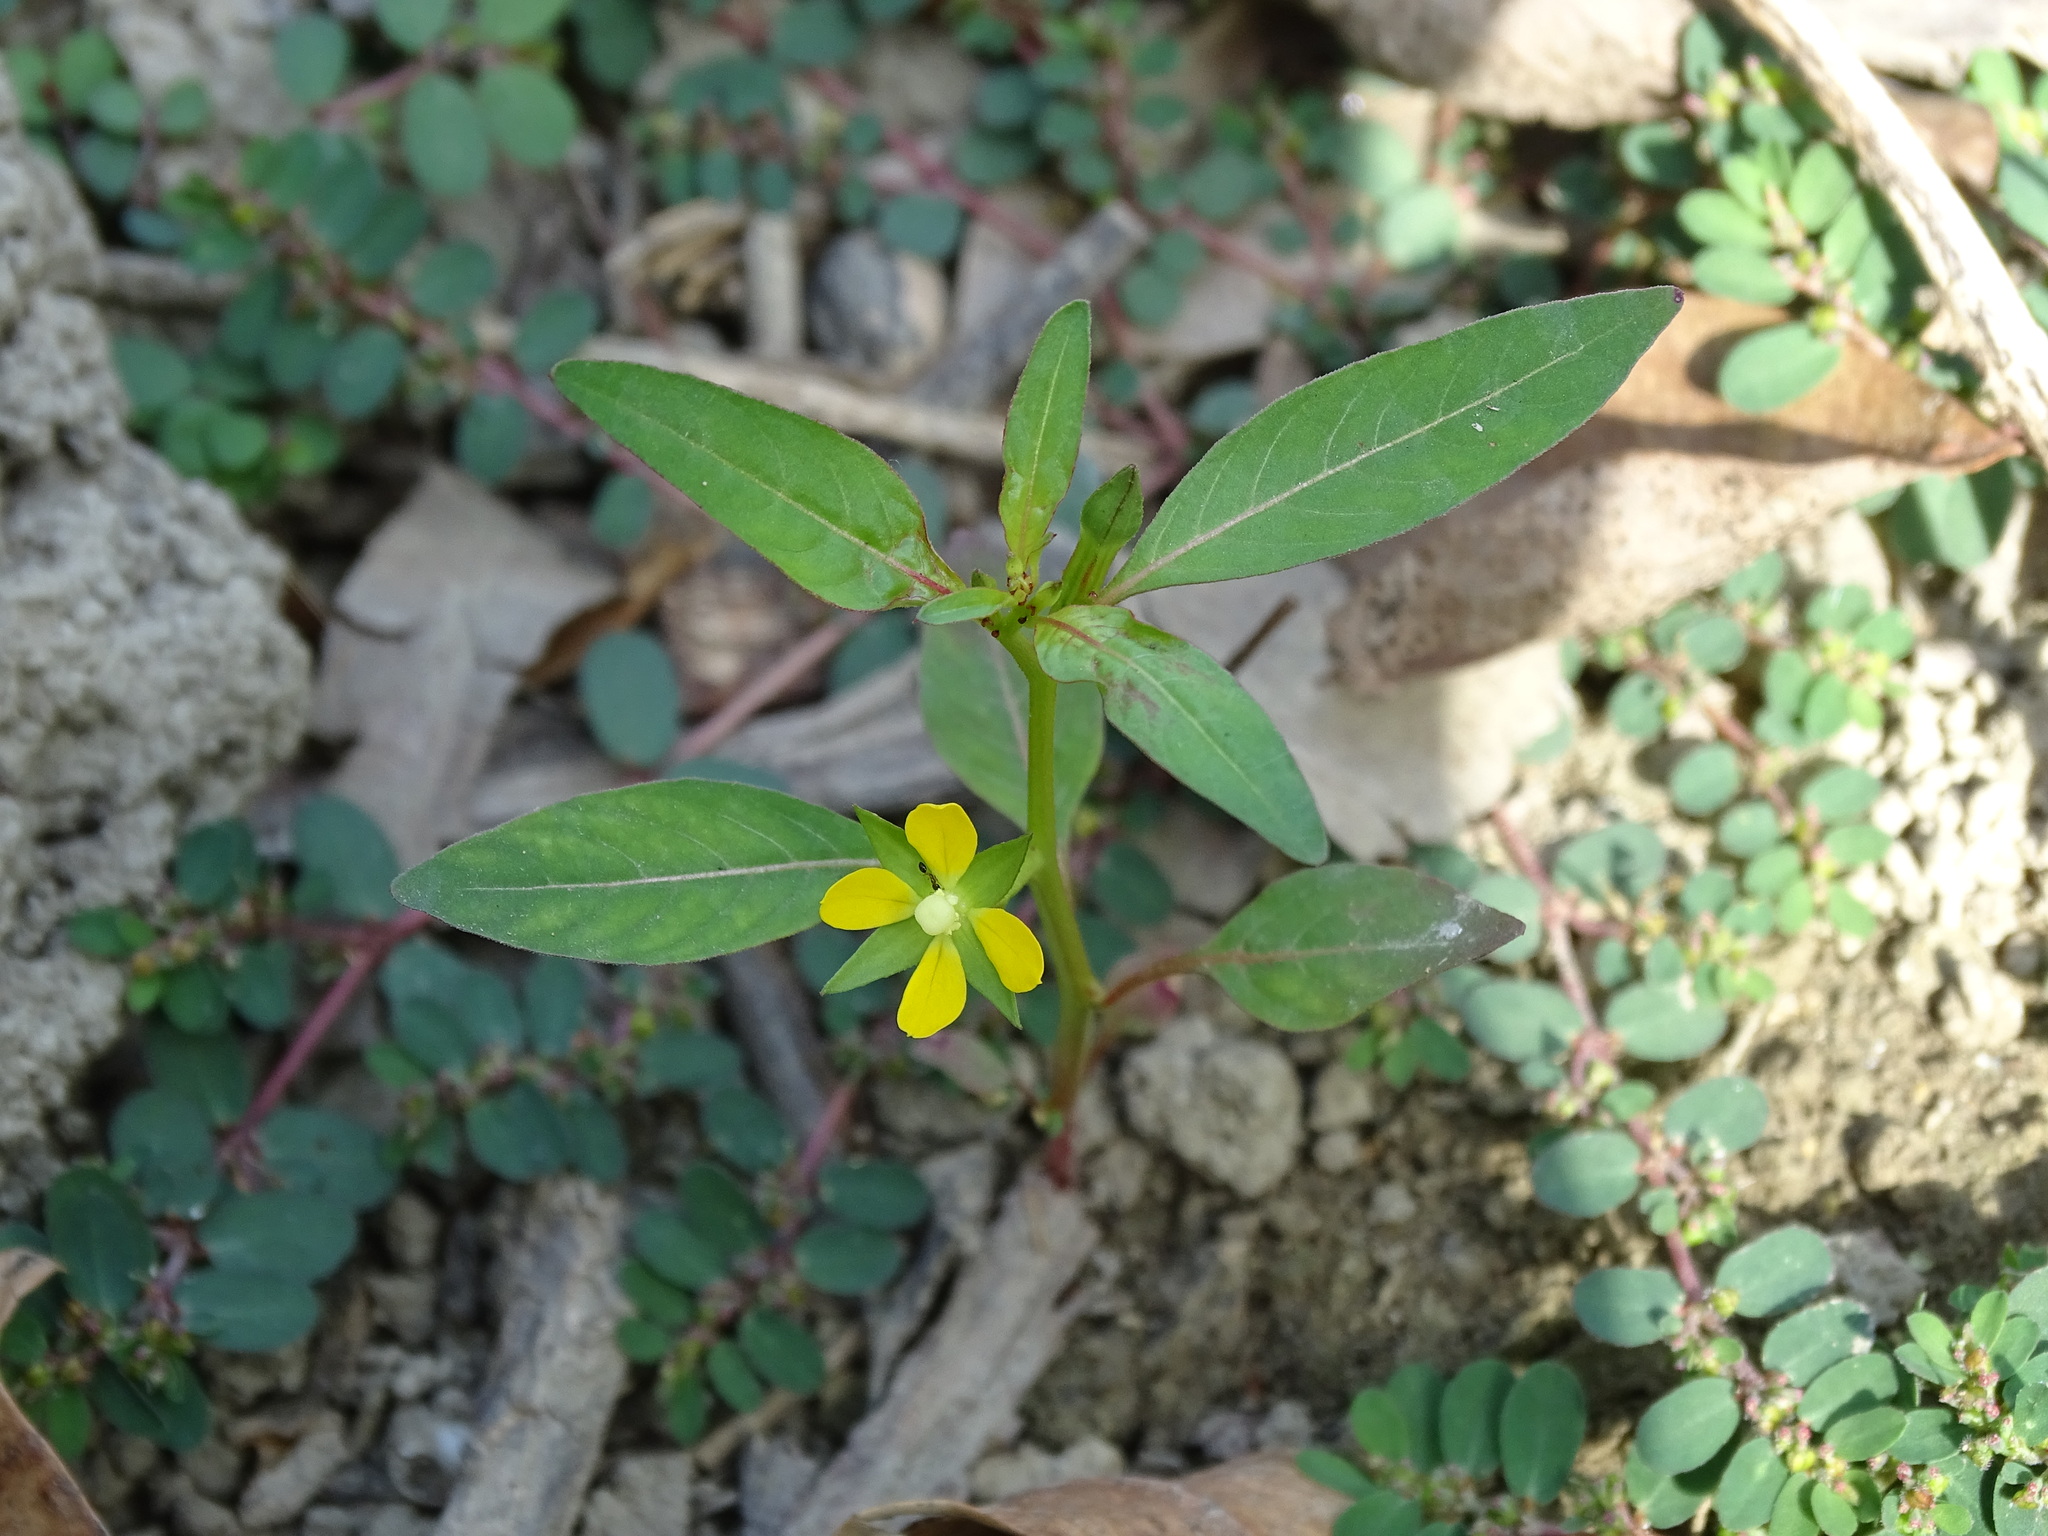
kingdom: Plantae
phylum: Tracheophyta
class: Magnoliopsida
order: Myrtales
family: Onagraceae
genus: Ludwigia
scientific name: Ludwigia erecta
